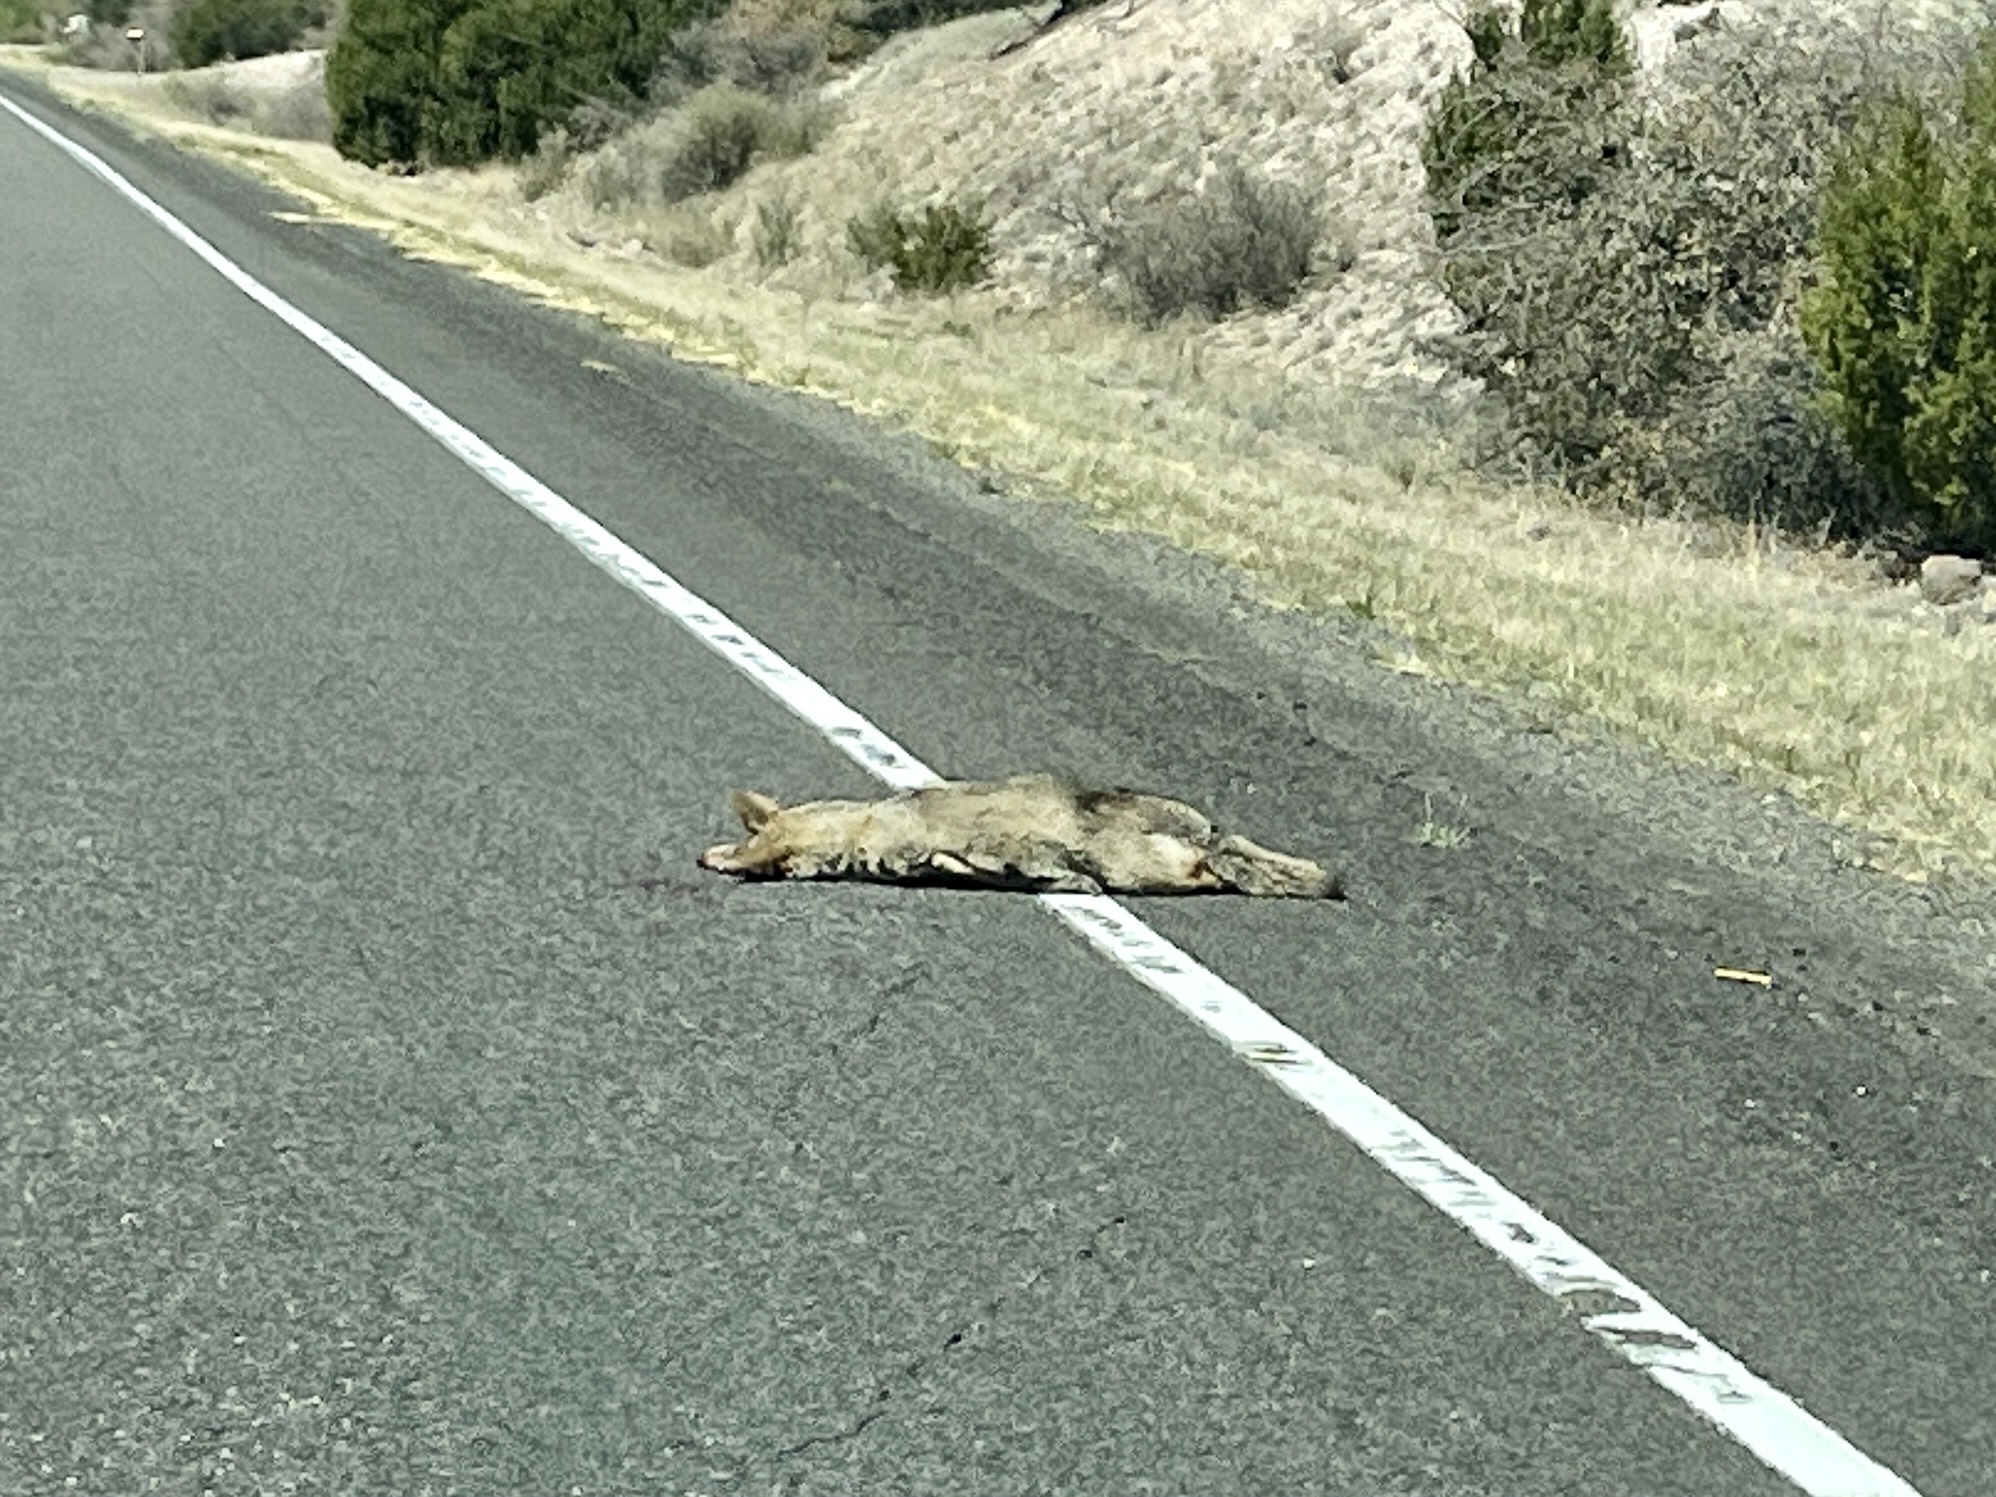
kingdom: Animalia
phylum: Chordata
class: Mammalia
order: Carnivora
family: Canidae
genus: Canis
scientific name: Canis latrans
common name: Coyote
